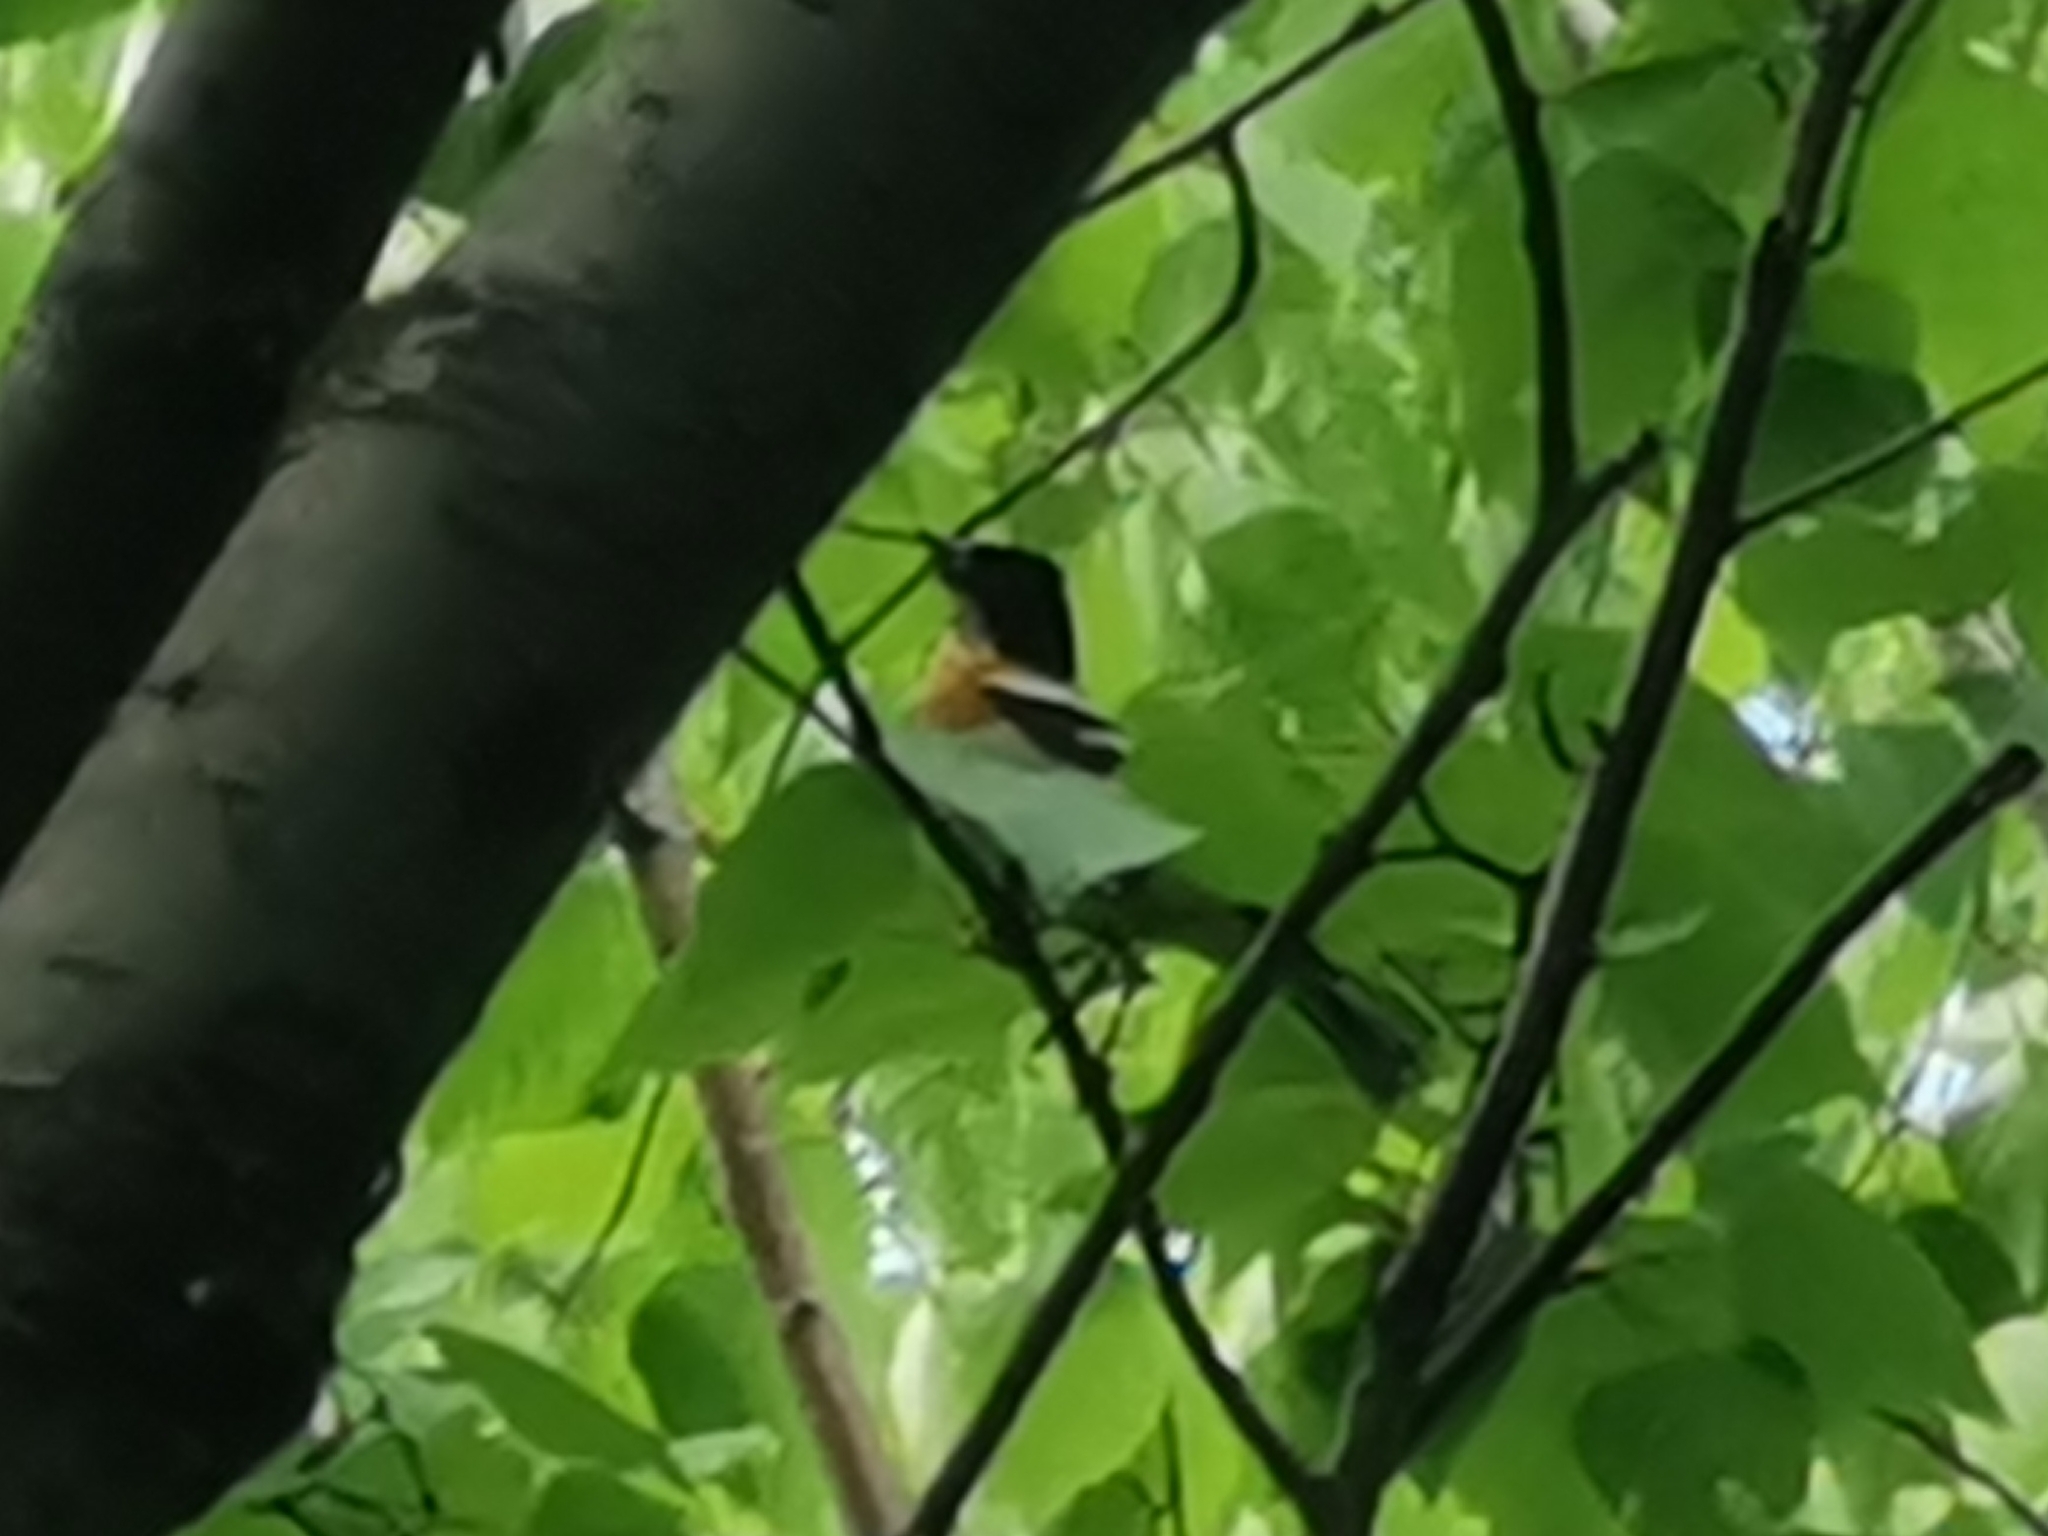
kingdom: Animalia
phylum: Chordata
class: Aves
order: Passeriformes
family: Fringillidae
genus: Fringilla
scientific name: Fringilla montifringilla
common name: Brambling
